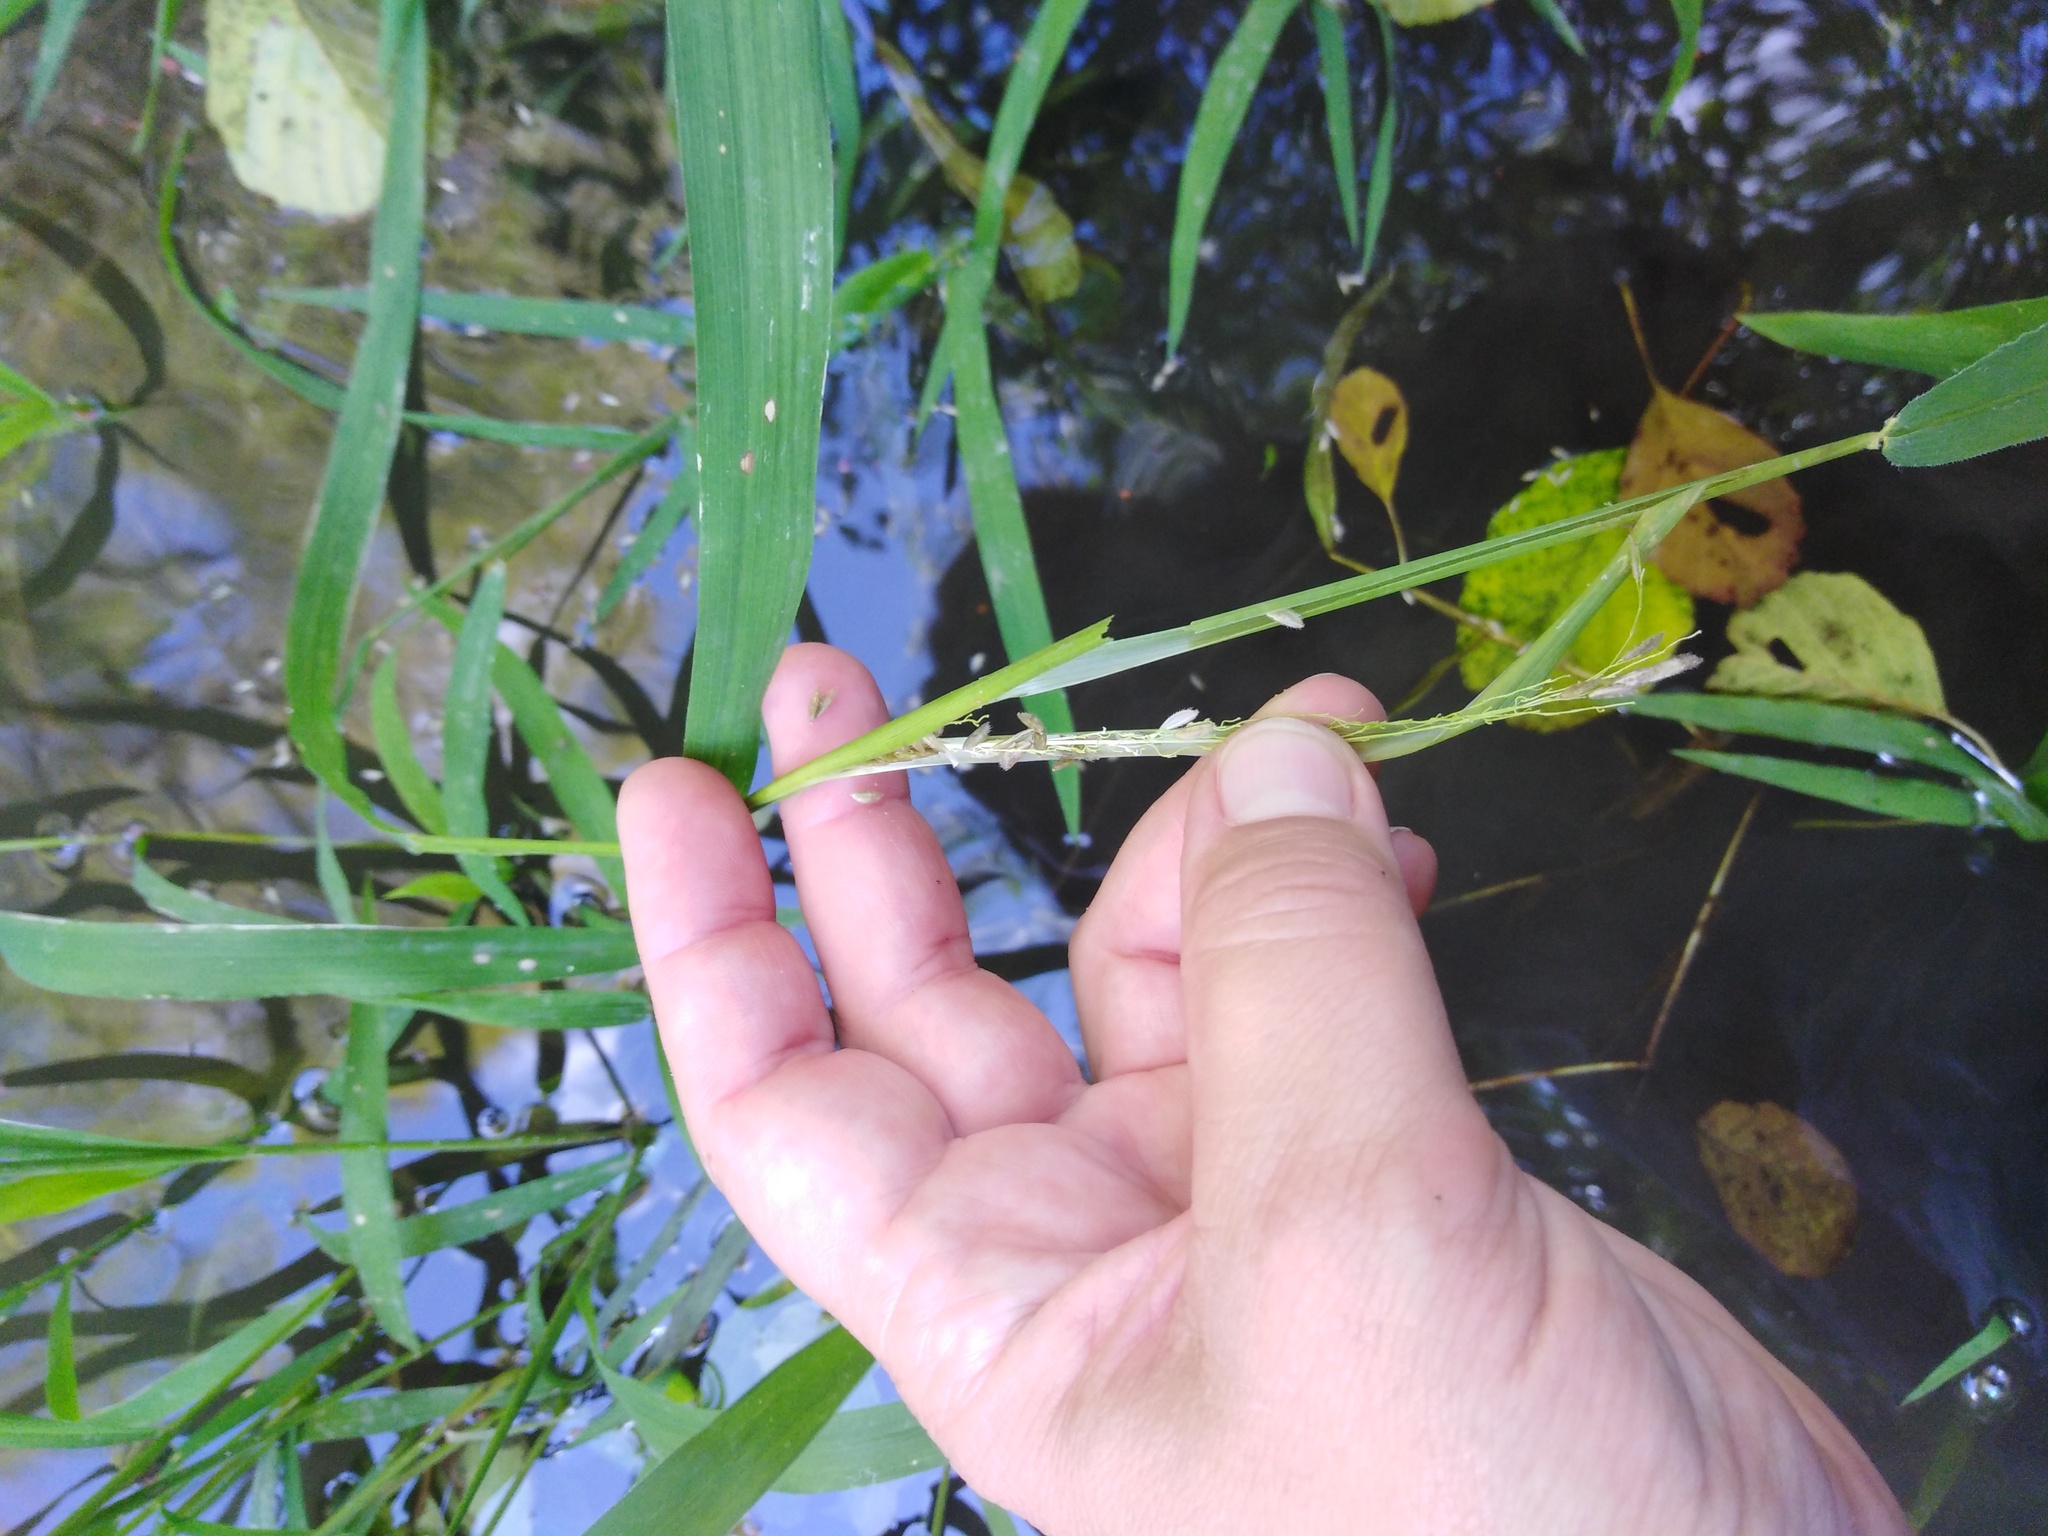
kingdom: Plantae
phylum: Tracheophyta
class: Liliopsida
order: Poales
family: Poaceae
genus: Leersia
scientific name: Leersia oryzoides
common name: Cut-grass
